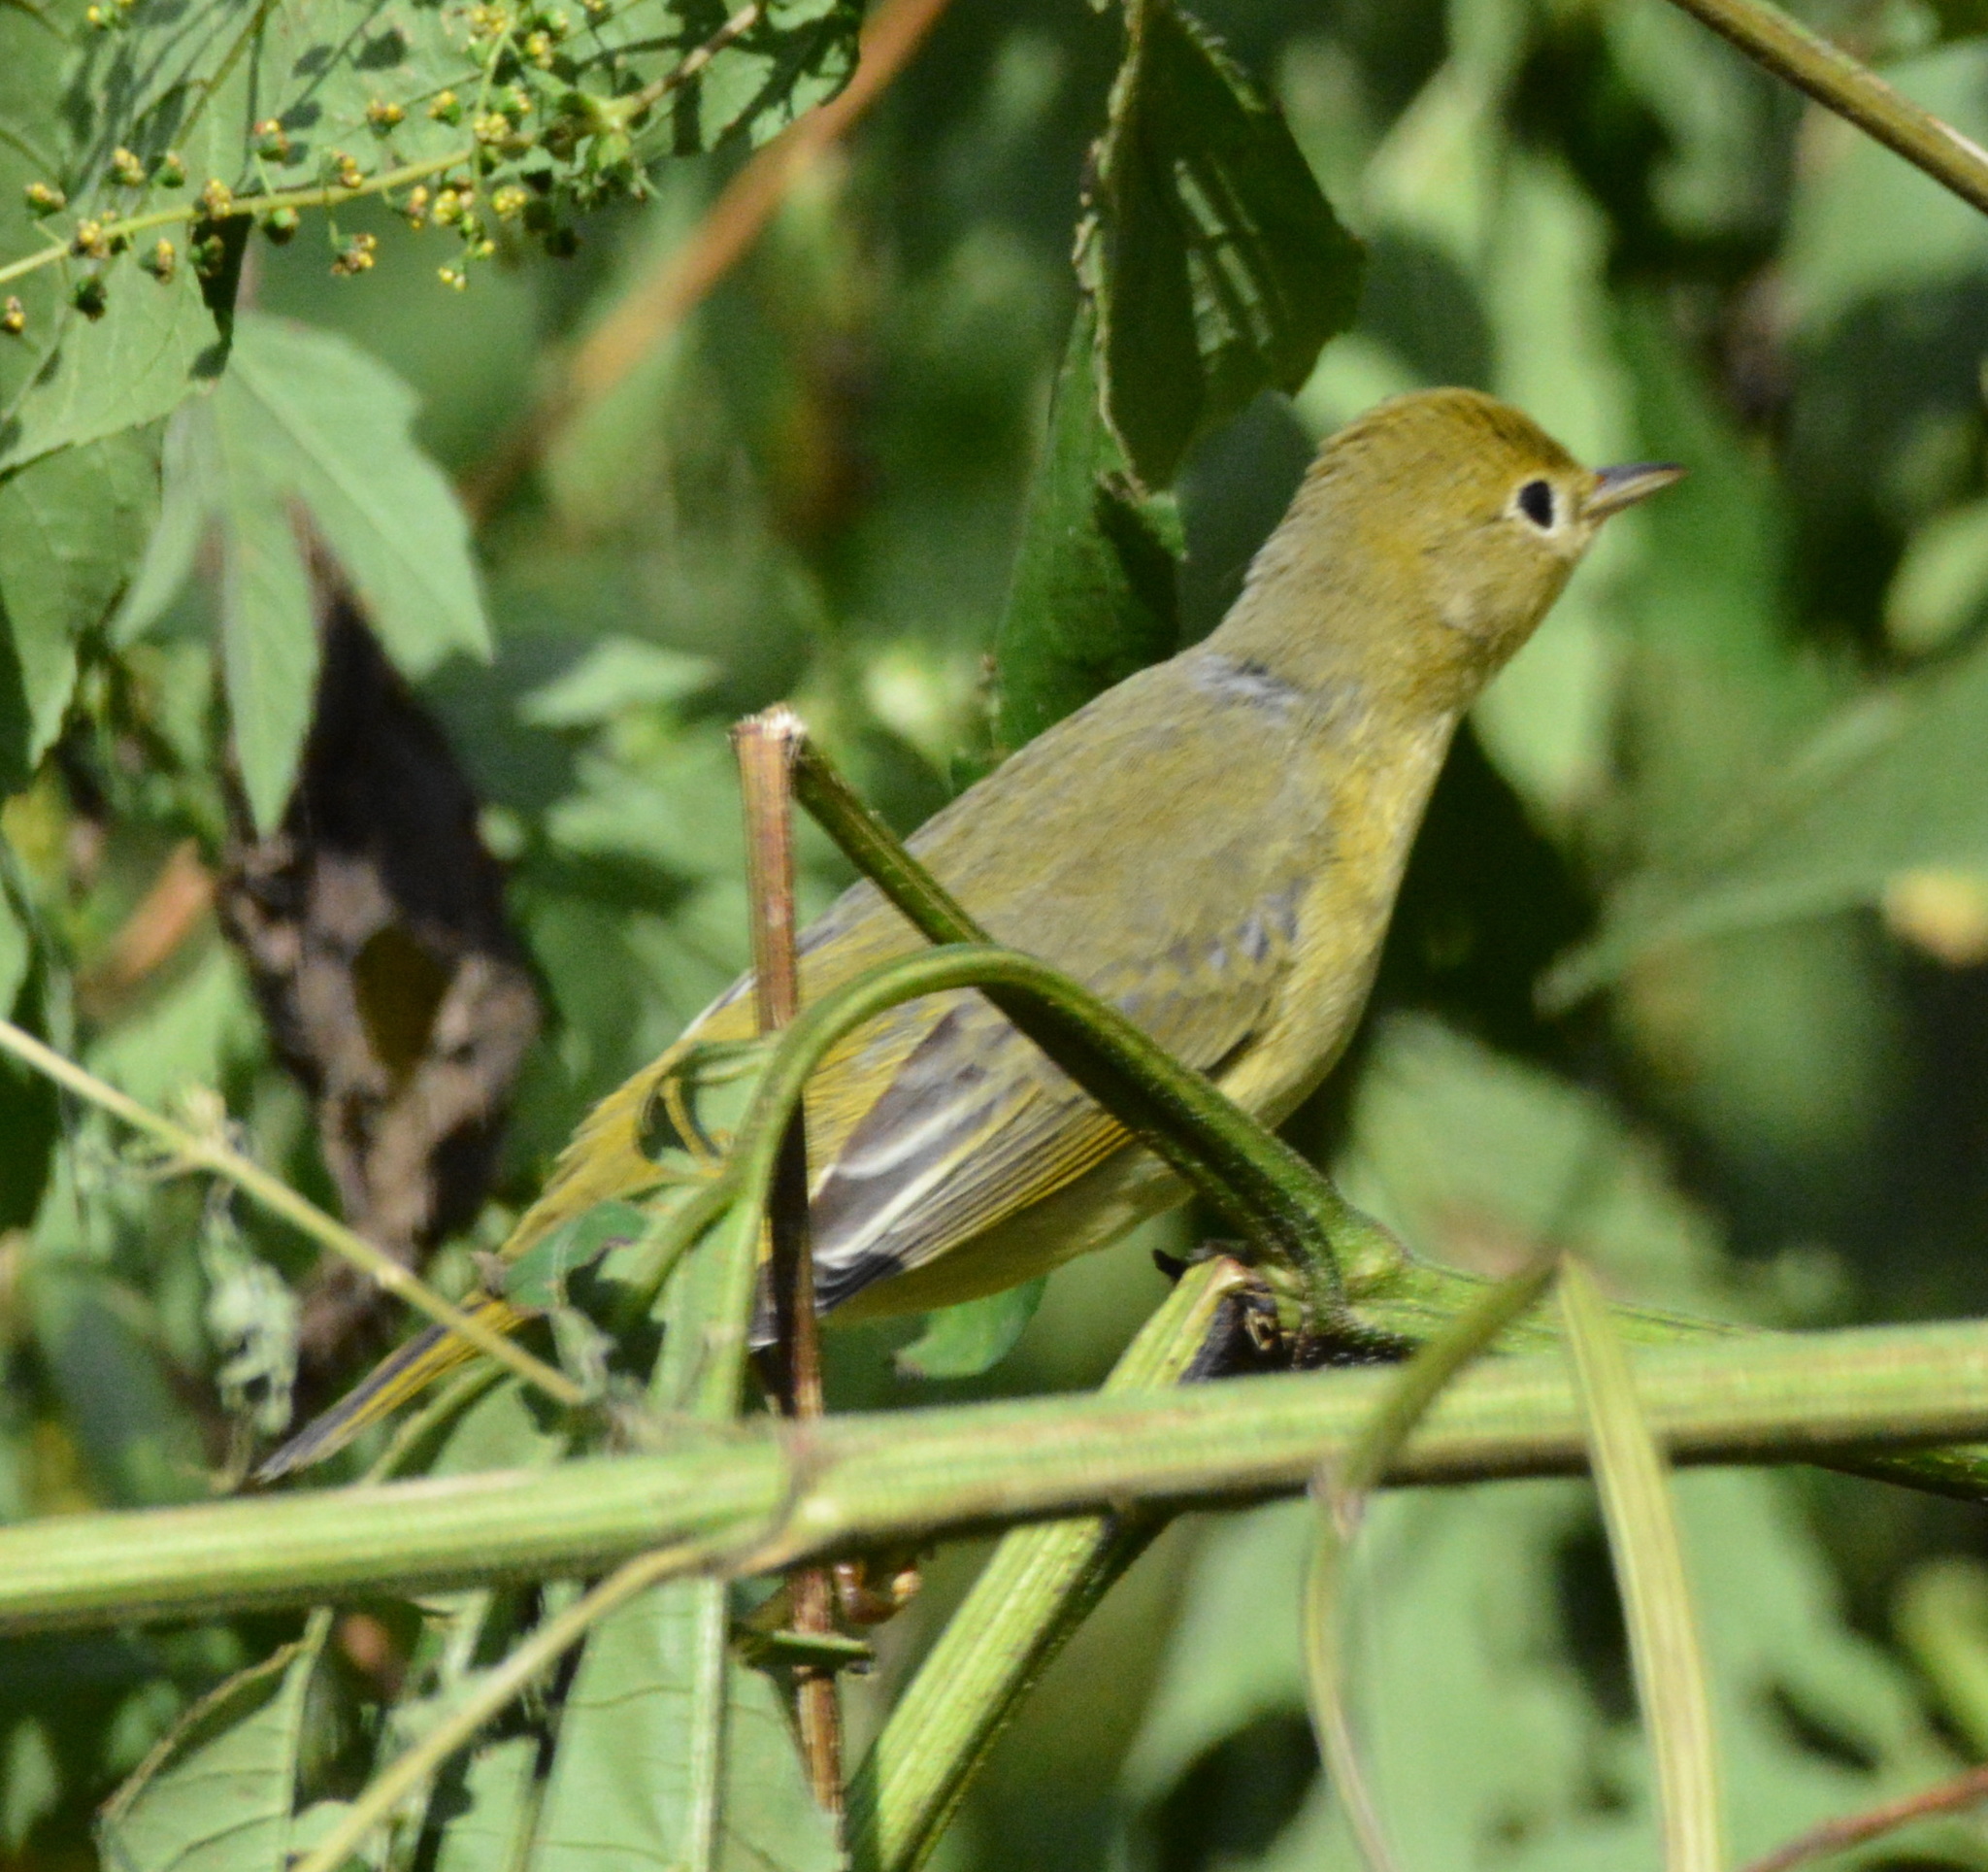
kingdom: Animalia
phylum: Chordata
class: Aves
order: Passeriformes
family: Parulidae
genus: Setophaga
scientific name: Setophaga petechia
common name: Yellow warbler
